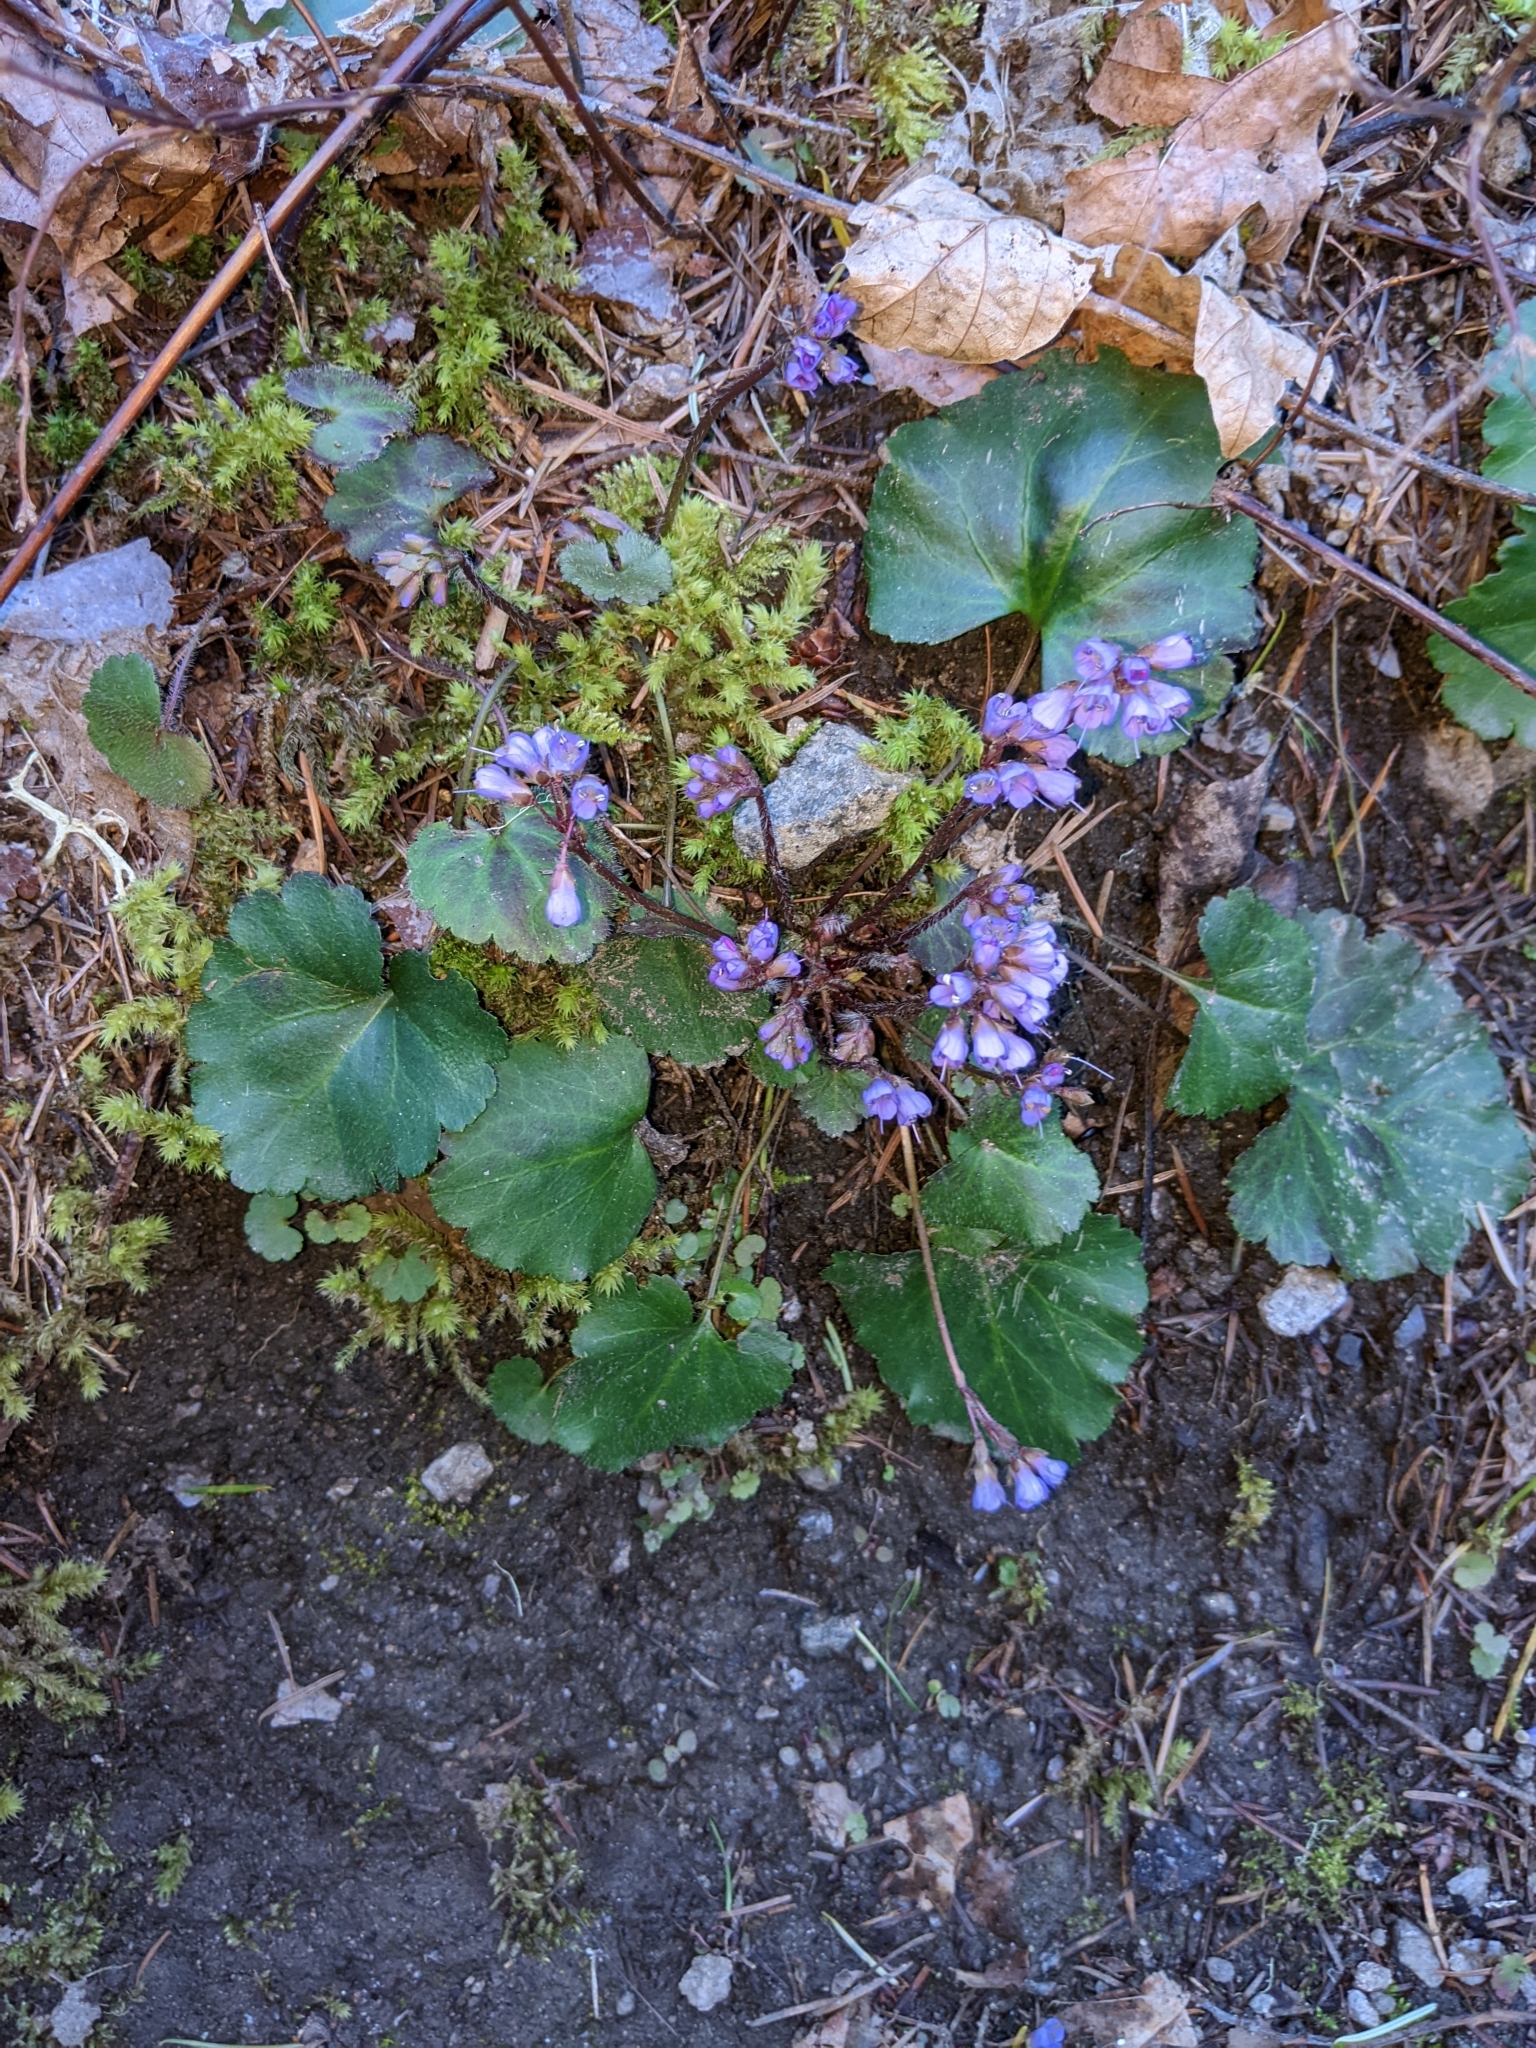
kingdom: Plantae
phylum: Tracheophyta
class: Magnoliopsida
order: Lamiales
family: Plantaginaceae
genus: Synthyris
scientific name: Synthyris reniformis
